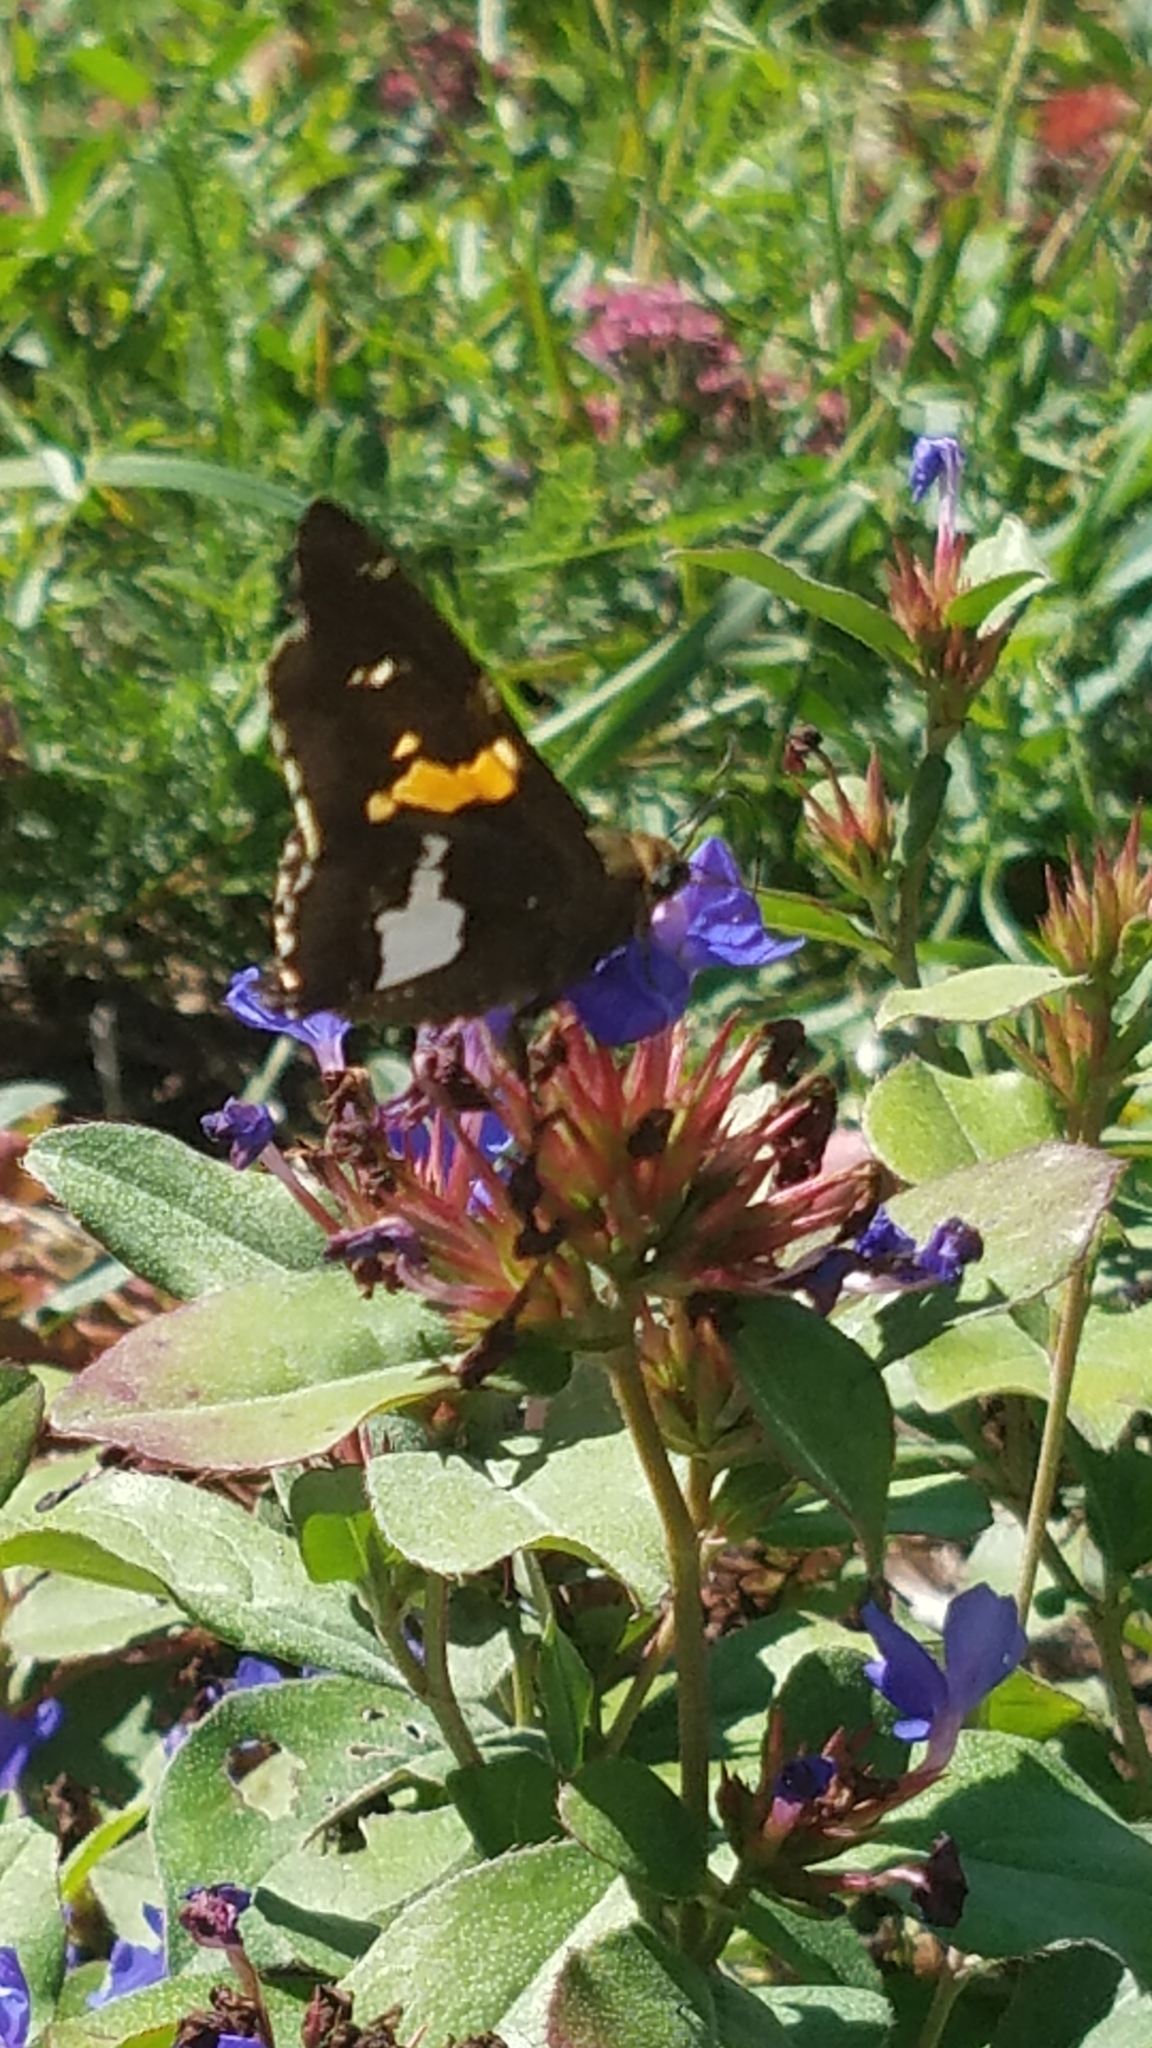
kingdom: Animalia
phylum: Arthropoda
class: Insecta
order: Lepidoptera
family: Hesperiidae
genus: Epargyreus
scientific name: Epargyreus clarus
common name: Silver-spotted skipper
